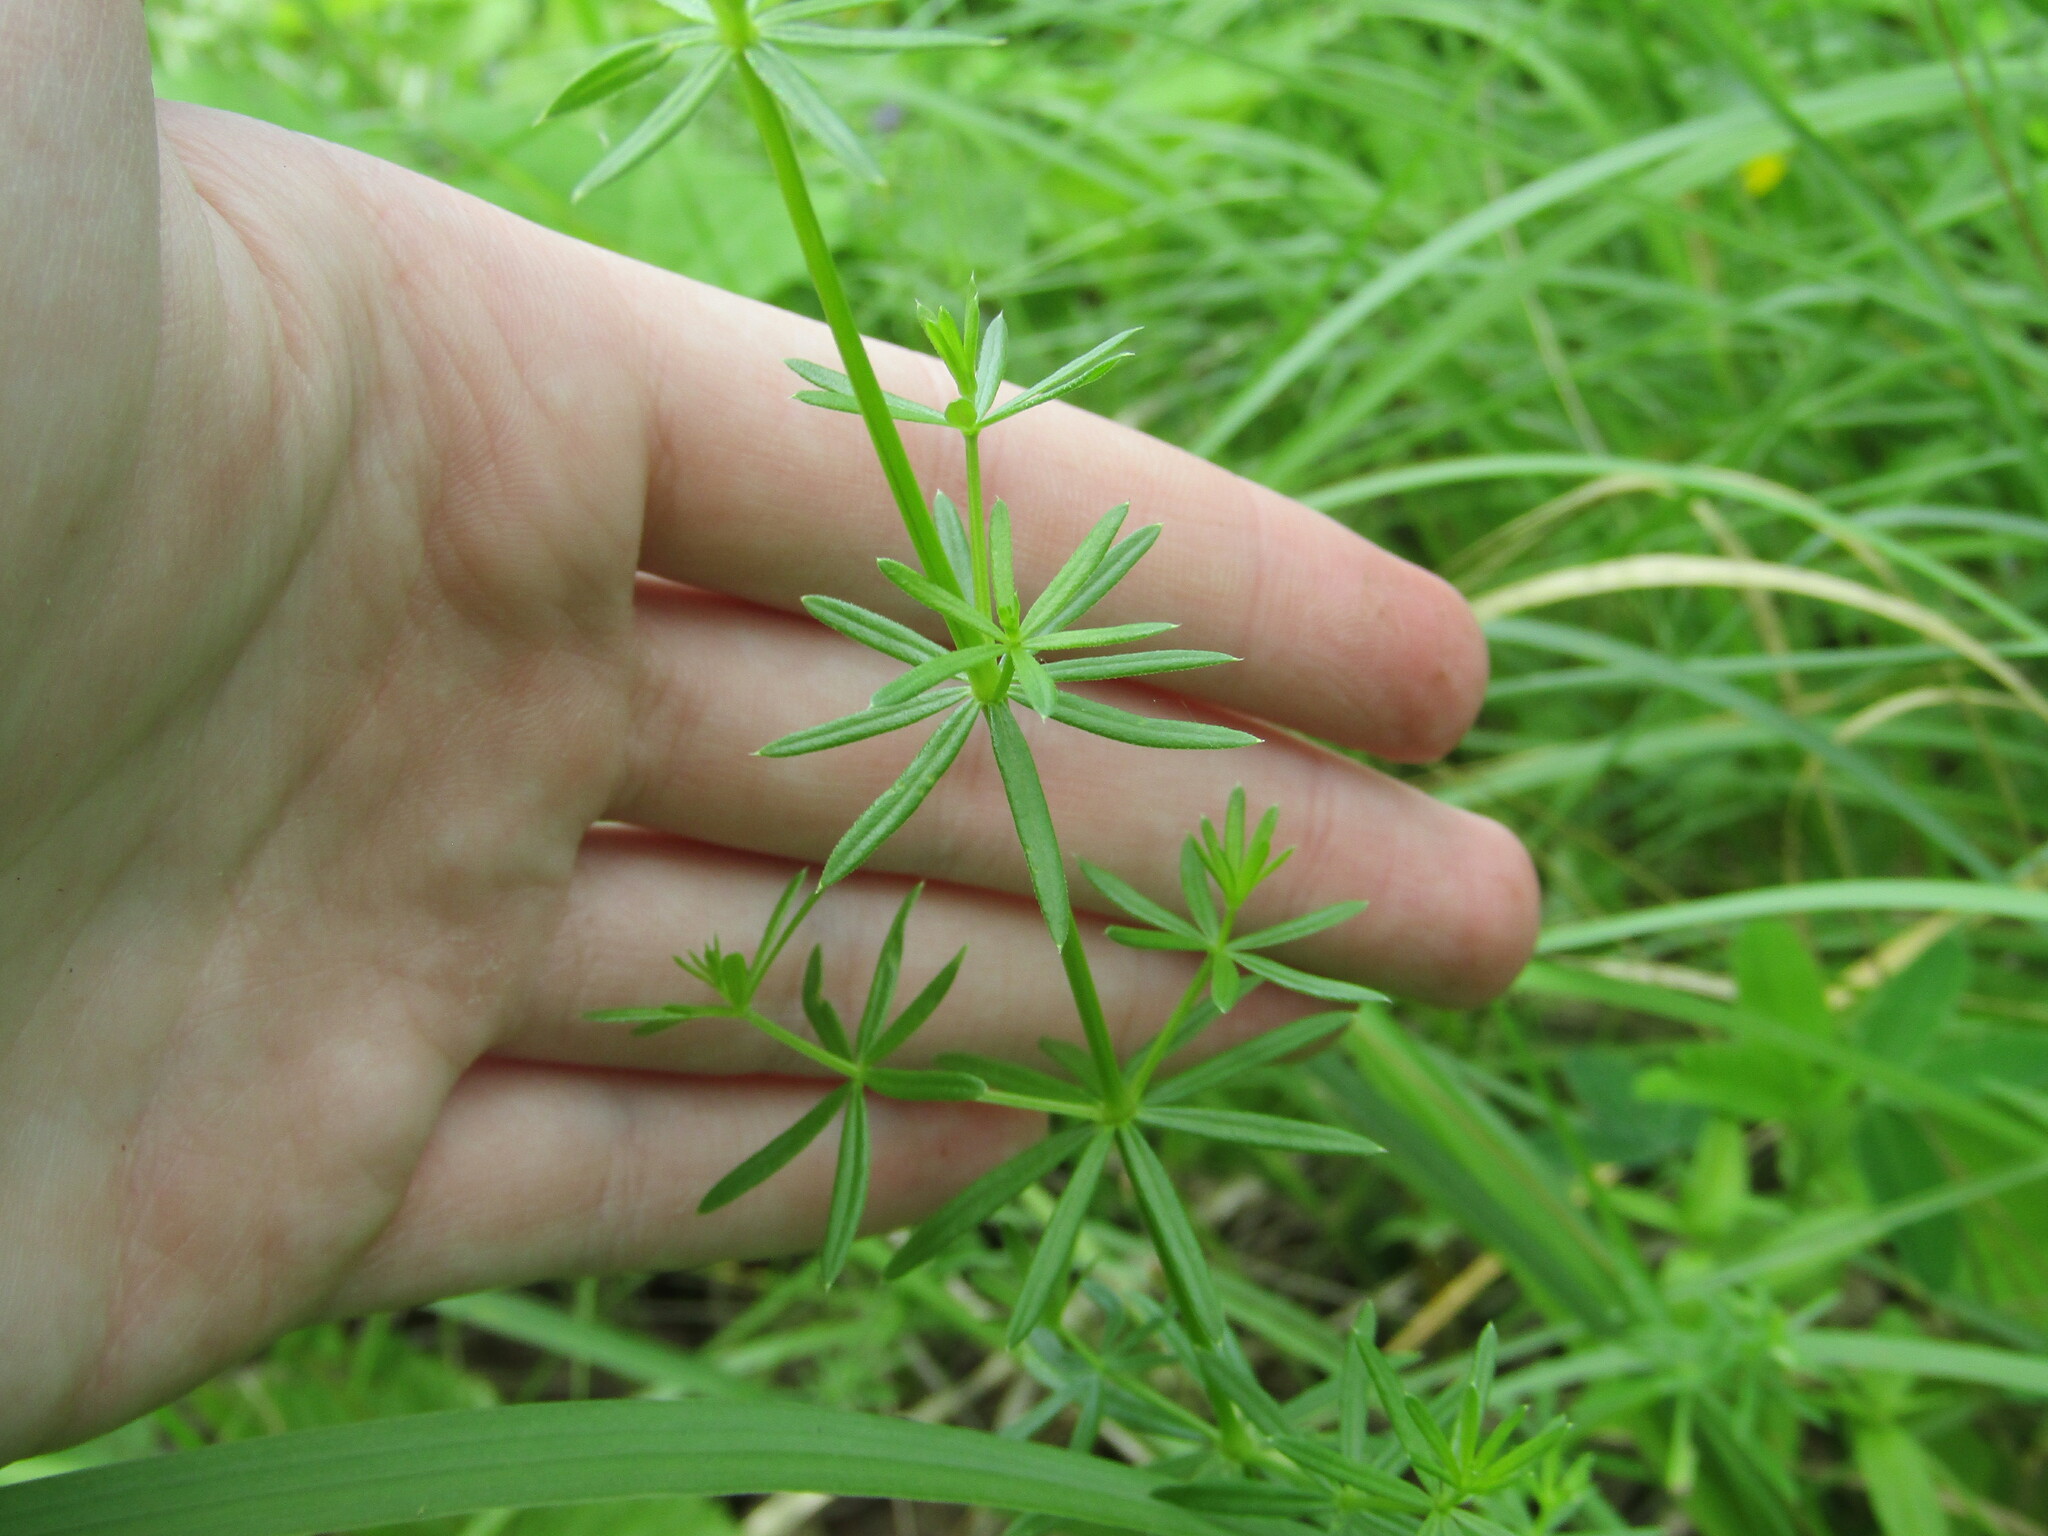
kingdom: Plantae
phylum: Tracheophyta
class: Magnoliopsida
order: Gentianales
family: Rubiaceae
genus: Galium
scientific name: Galium mollugo
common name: Hedge bedstraw
